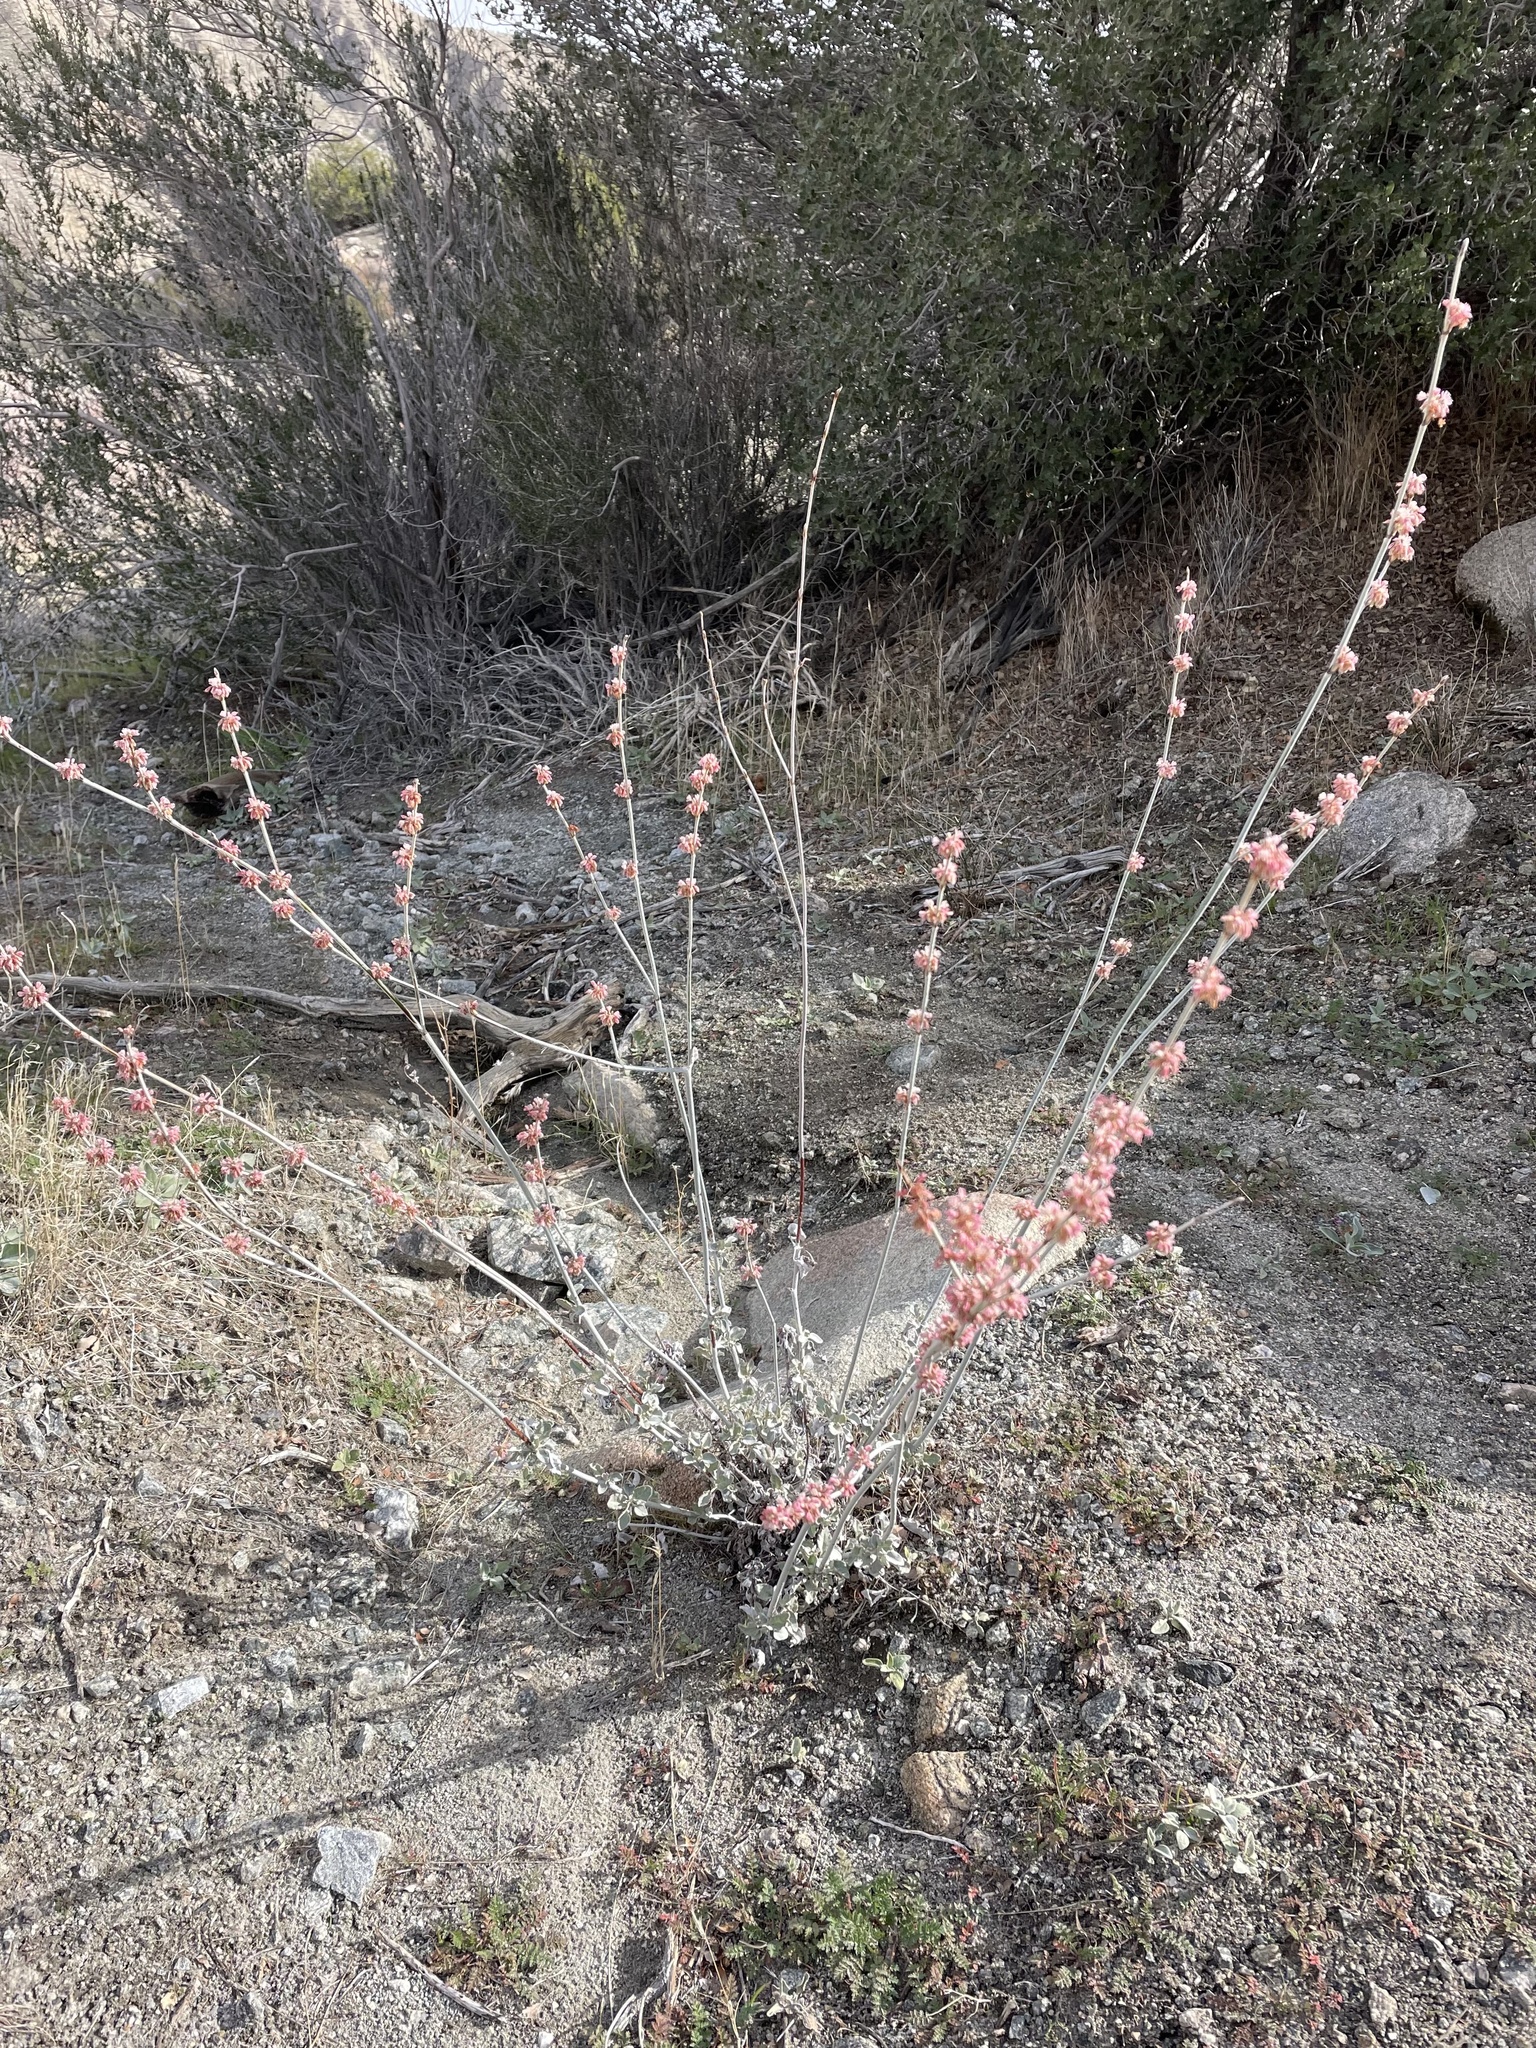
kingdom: Plantae
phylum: Tracheophyta
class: Magnoliopsida
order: Caryophyllales
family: Polygonaceae
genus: Eriogonum
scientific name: Eriogonum elongatum
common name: Long-stem wild buckwheat
